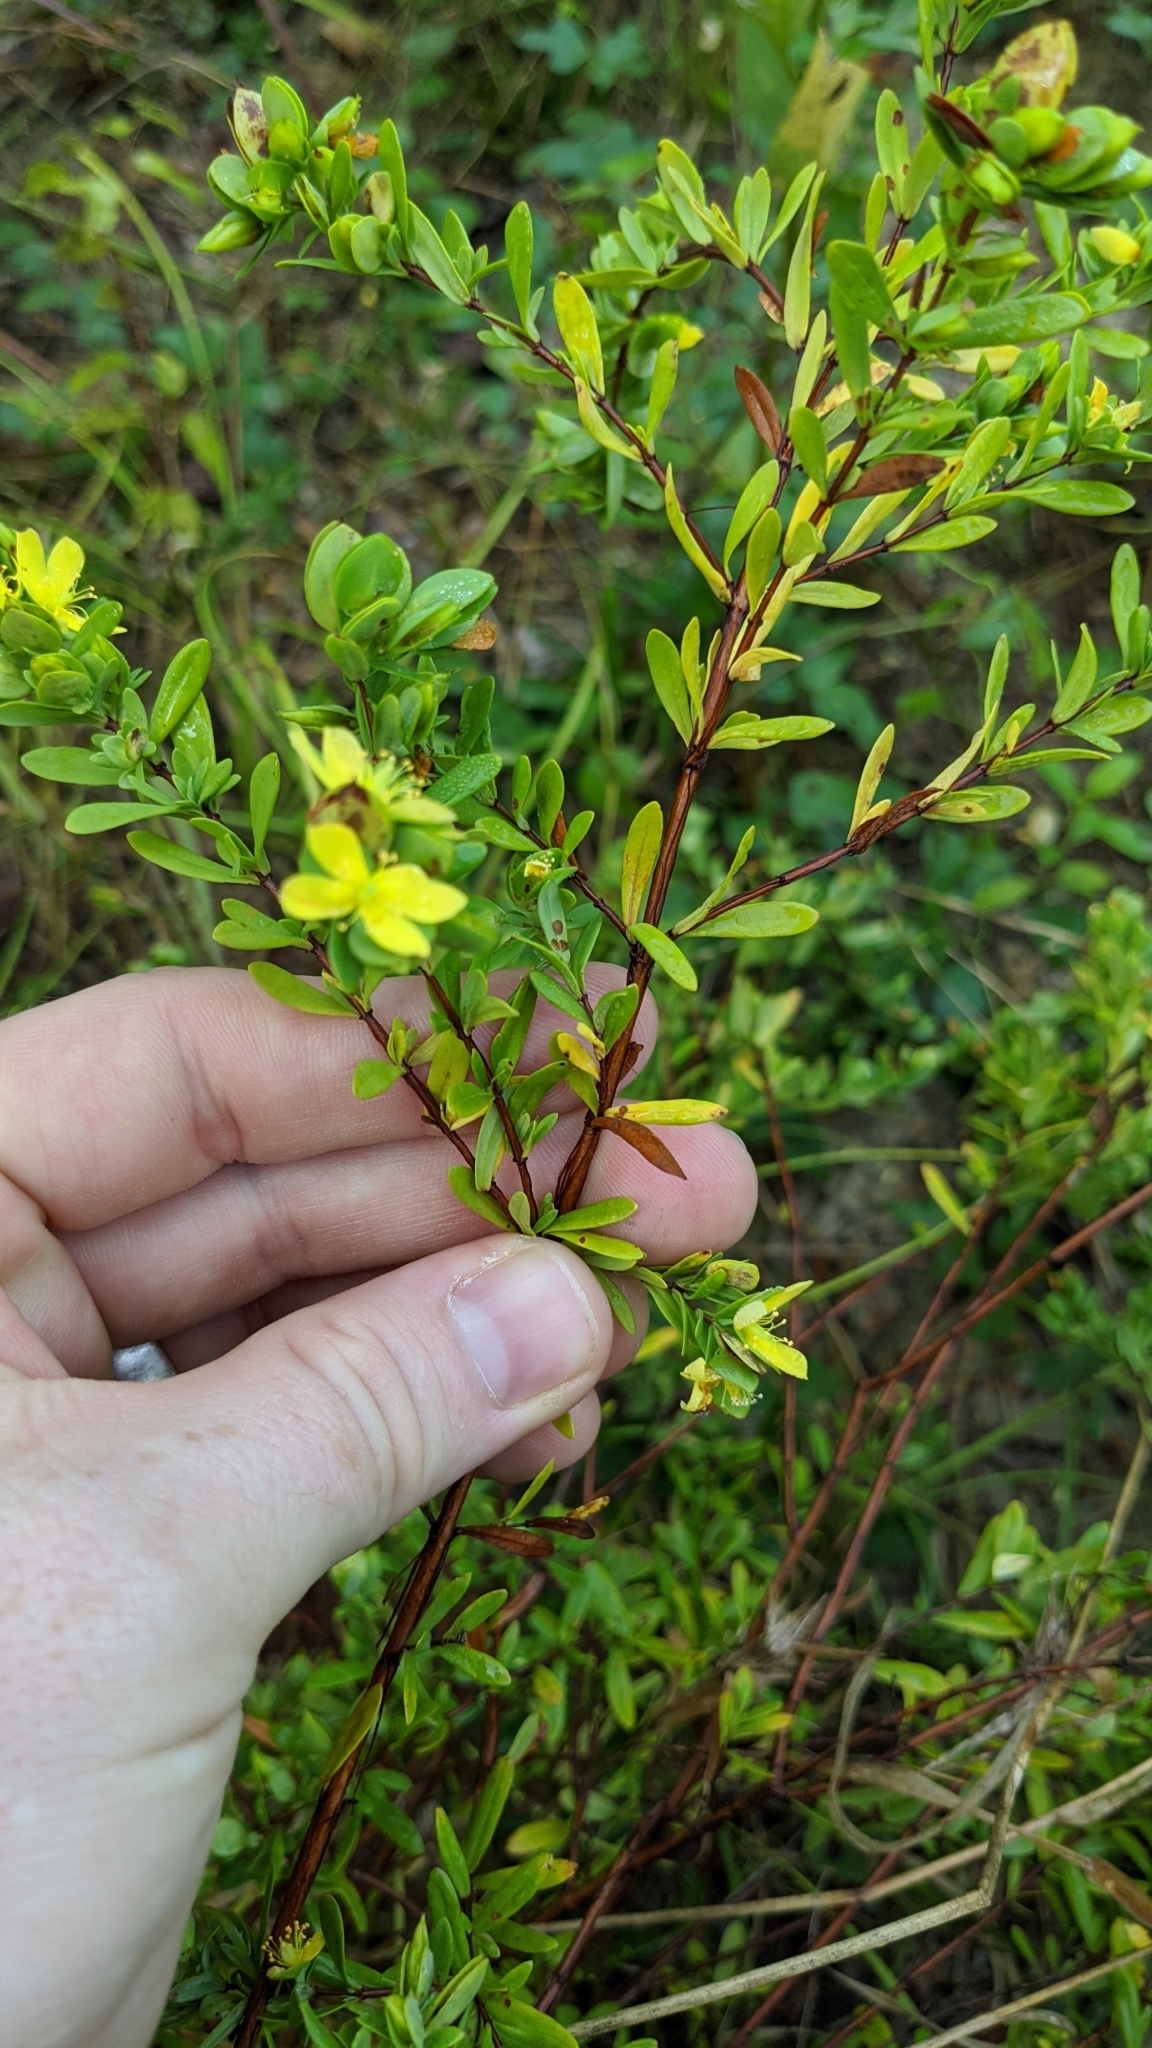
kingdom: Plantae
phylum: Tracheophyta
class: Magnoliopsida
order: Malpighiales
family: Hypericaceae
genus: Hypericum
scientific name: Hypericum hypericoides
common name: St. andrew's cross
